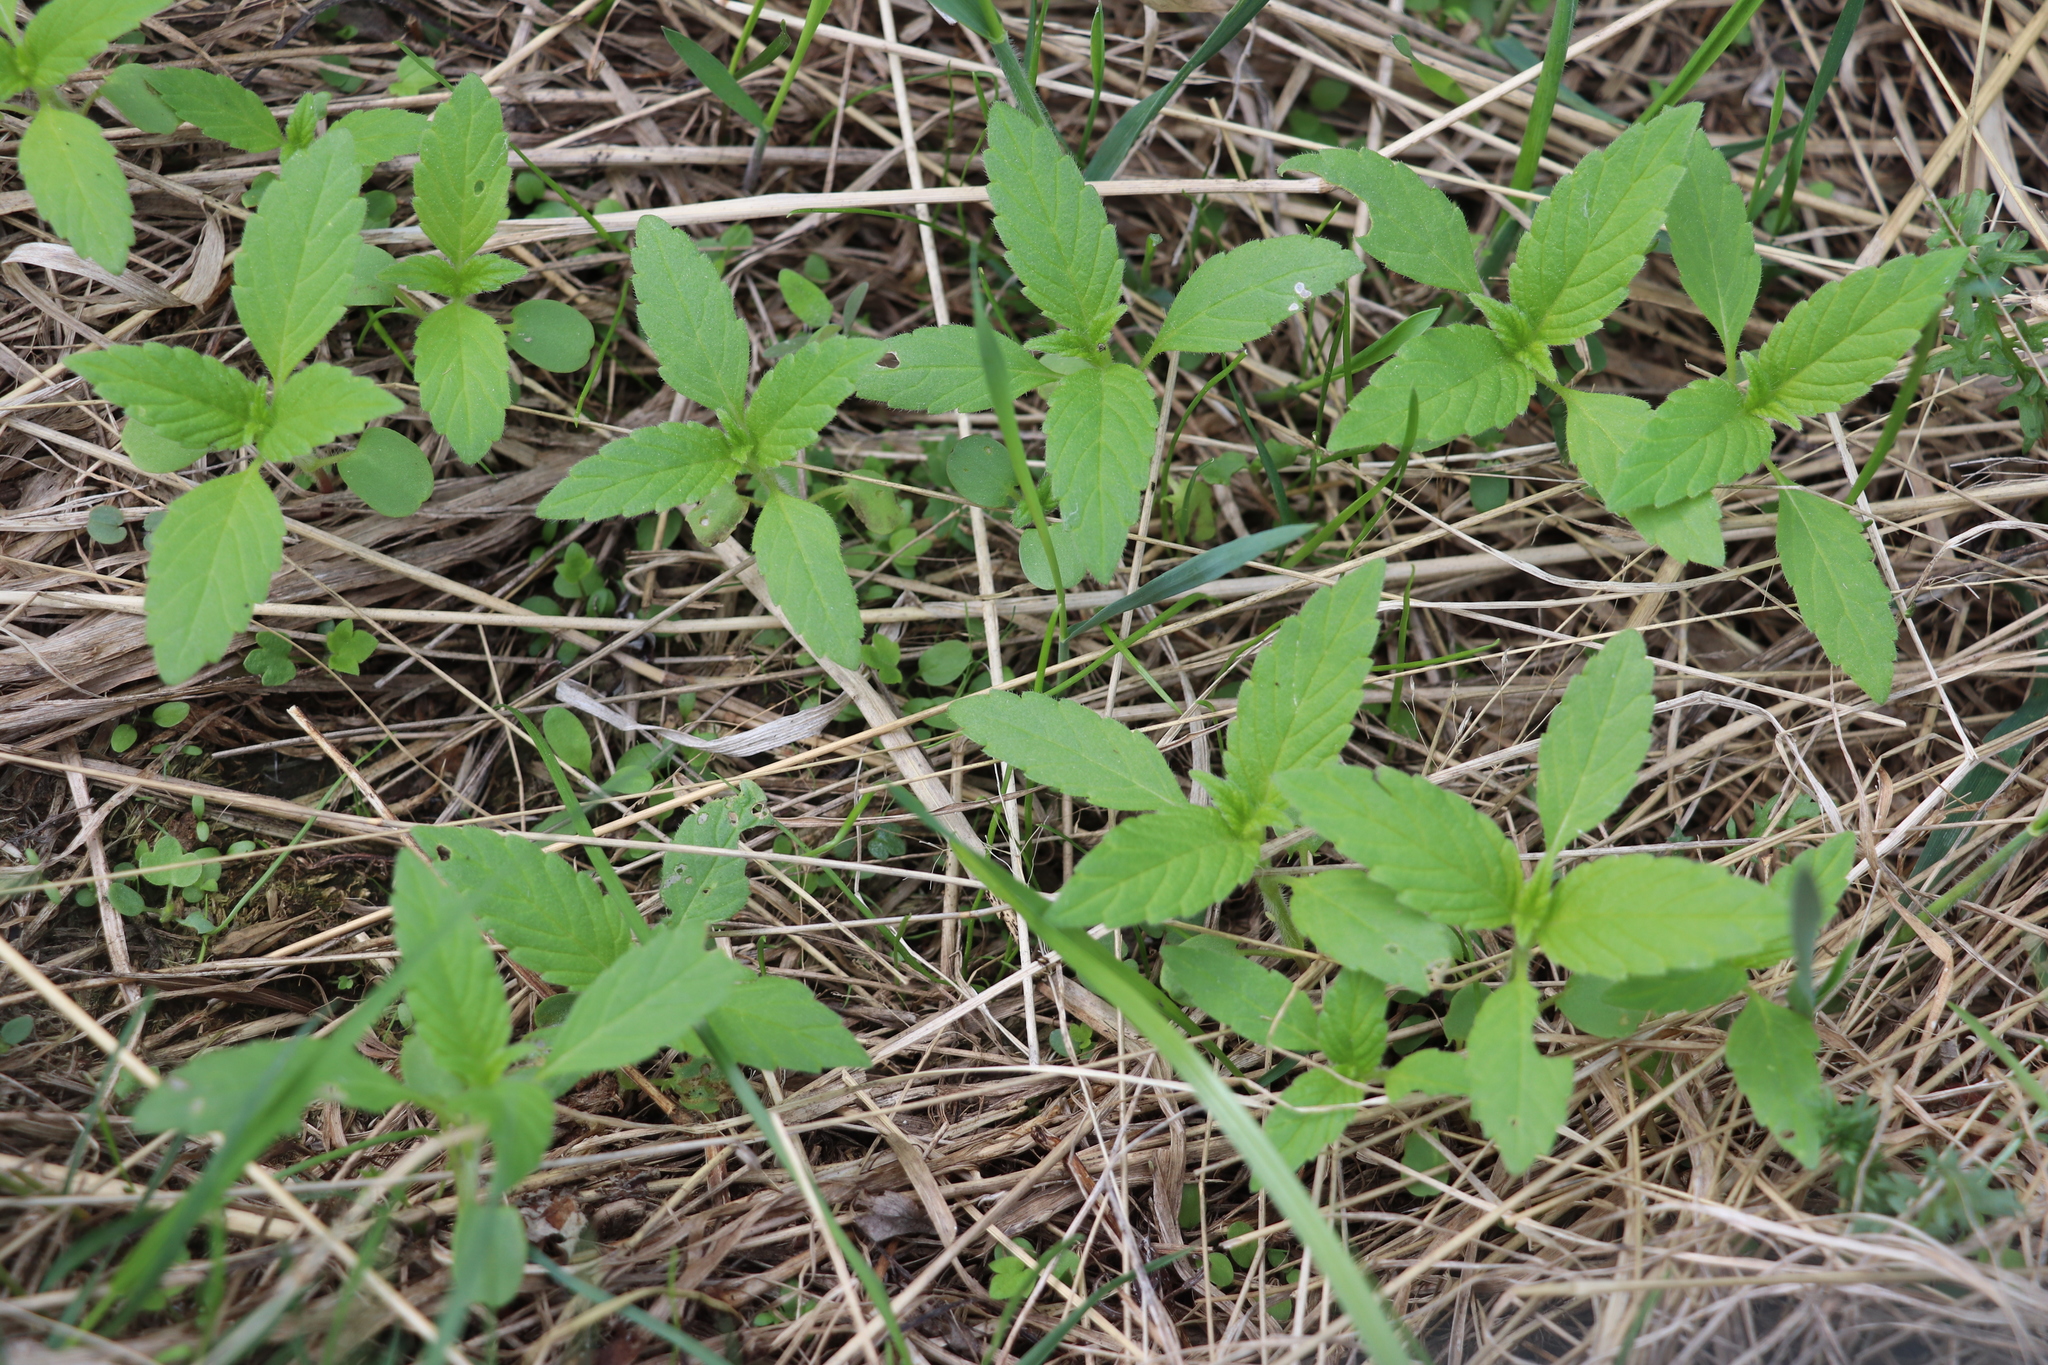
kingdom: Plantae
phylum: Tracheophyta
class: Magnoliopsida
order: Lamiales
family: Lamiaceae
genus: Galeopsis
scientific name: Galeopsis bifida
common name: Bifid hemp-nettle
